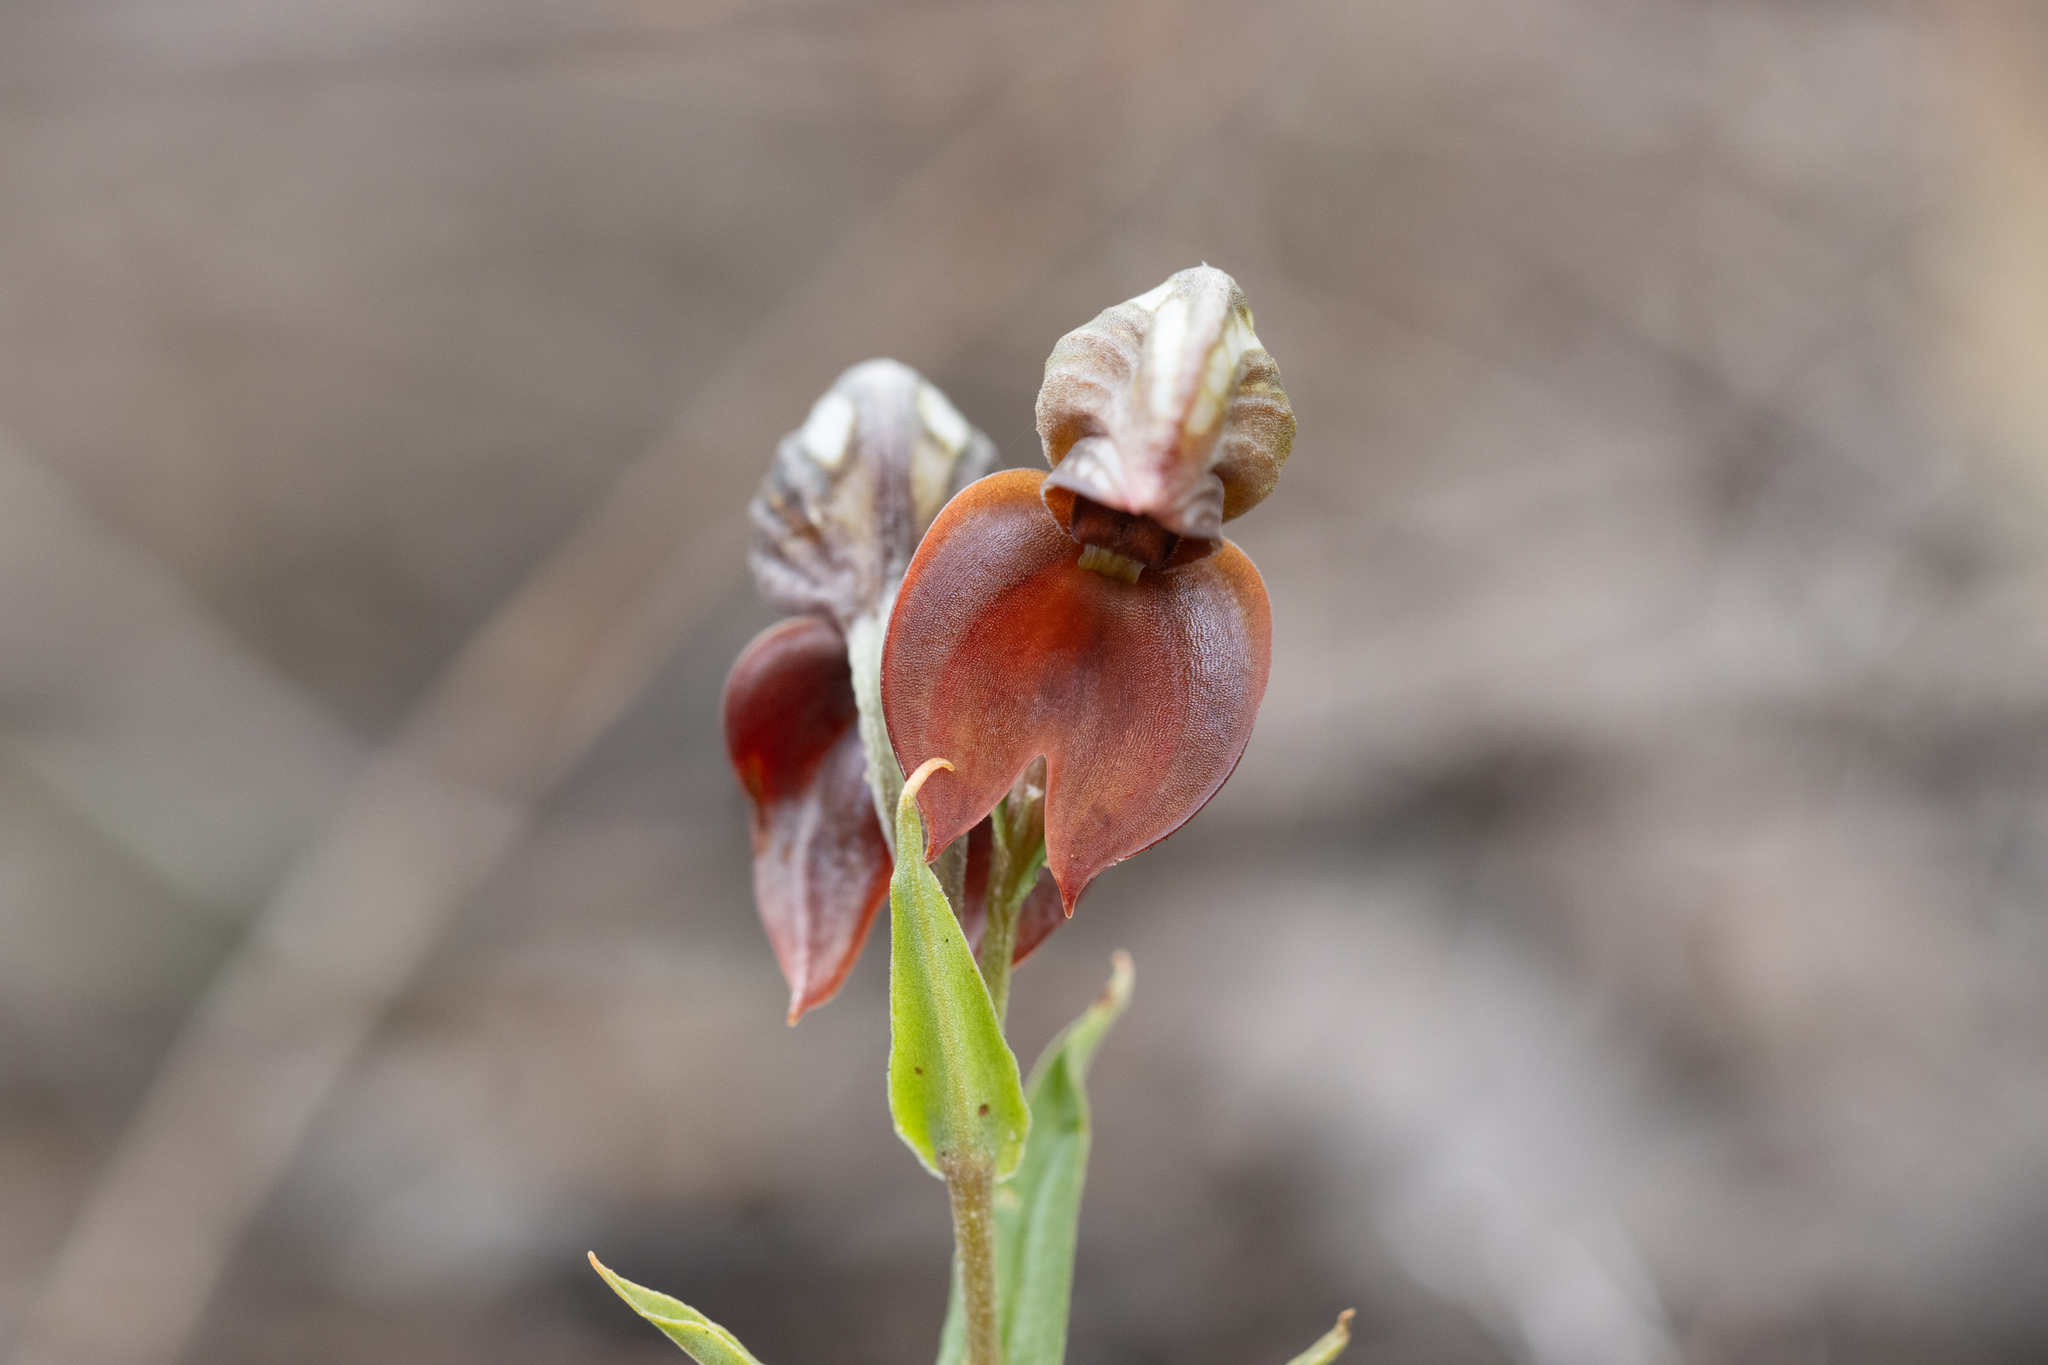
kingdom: Plantae
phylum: Tracheophyta
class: Liliopsida
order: Asparagales
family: Orchidaceae
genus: Pterostylis
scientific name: Pterostylis sanguinea
